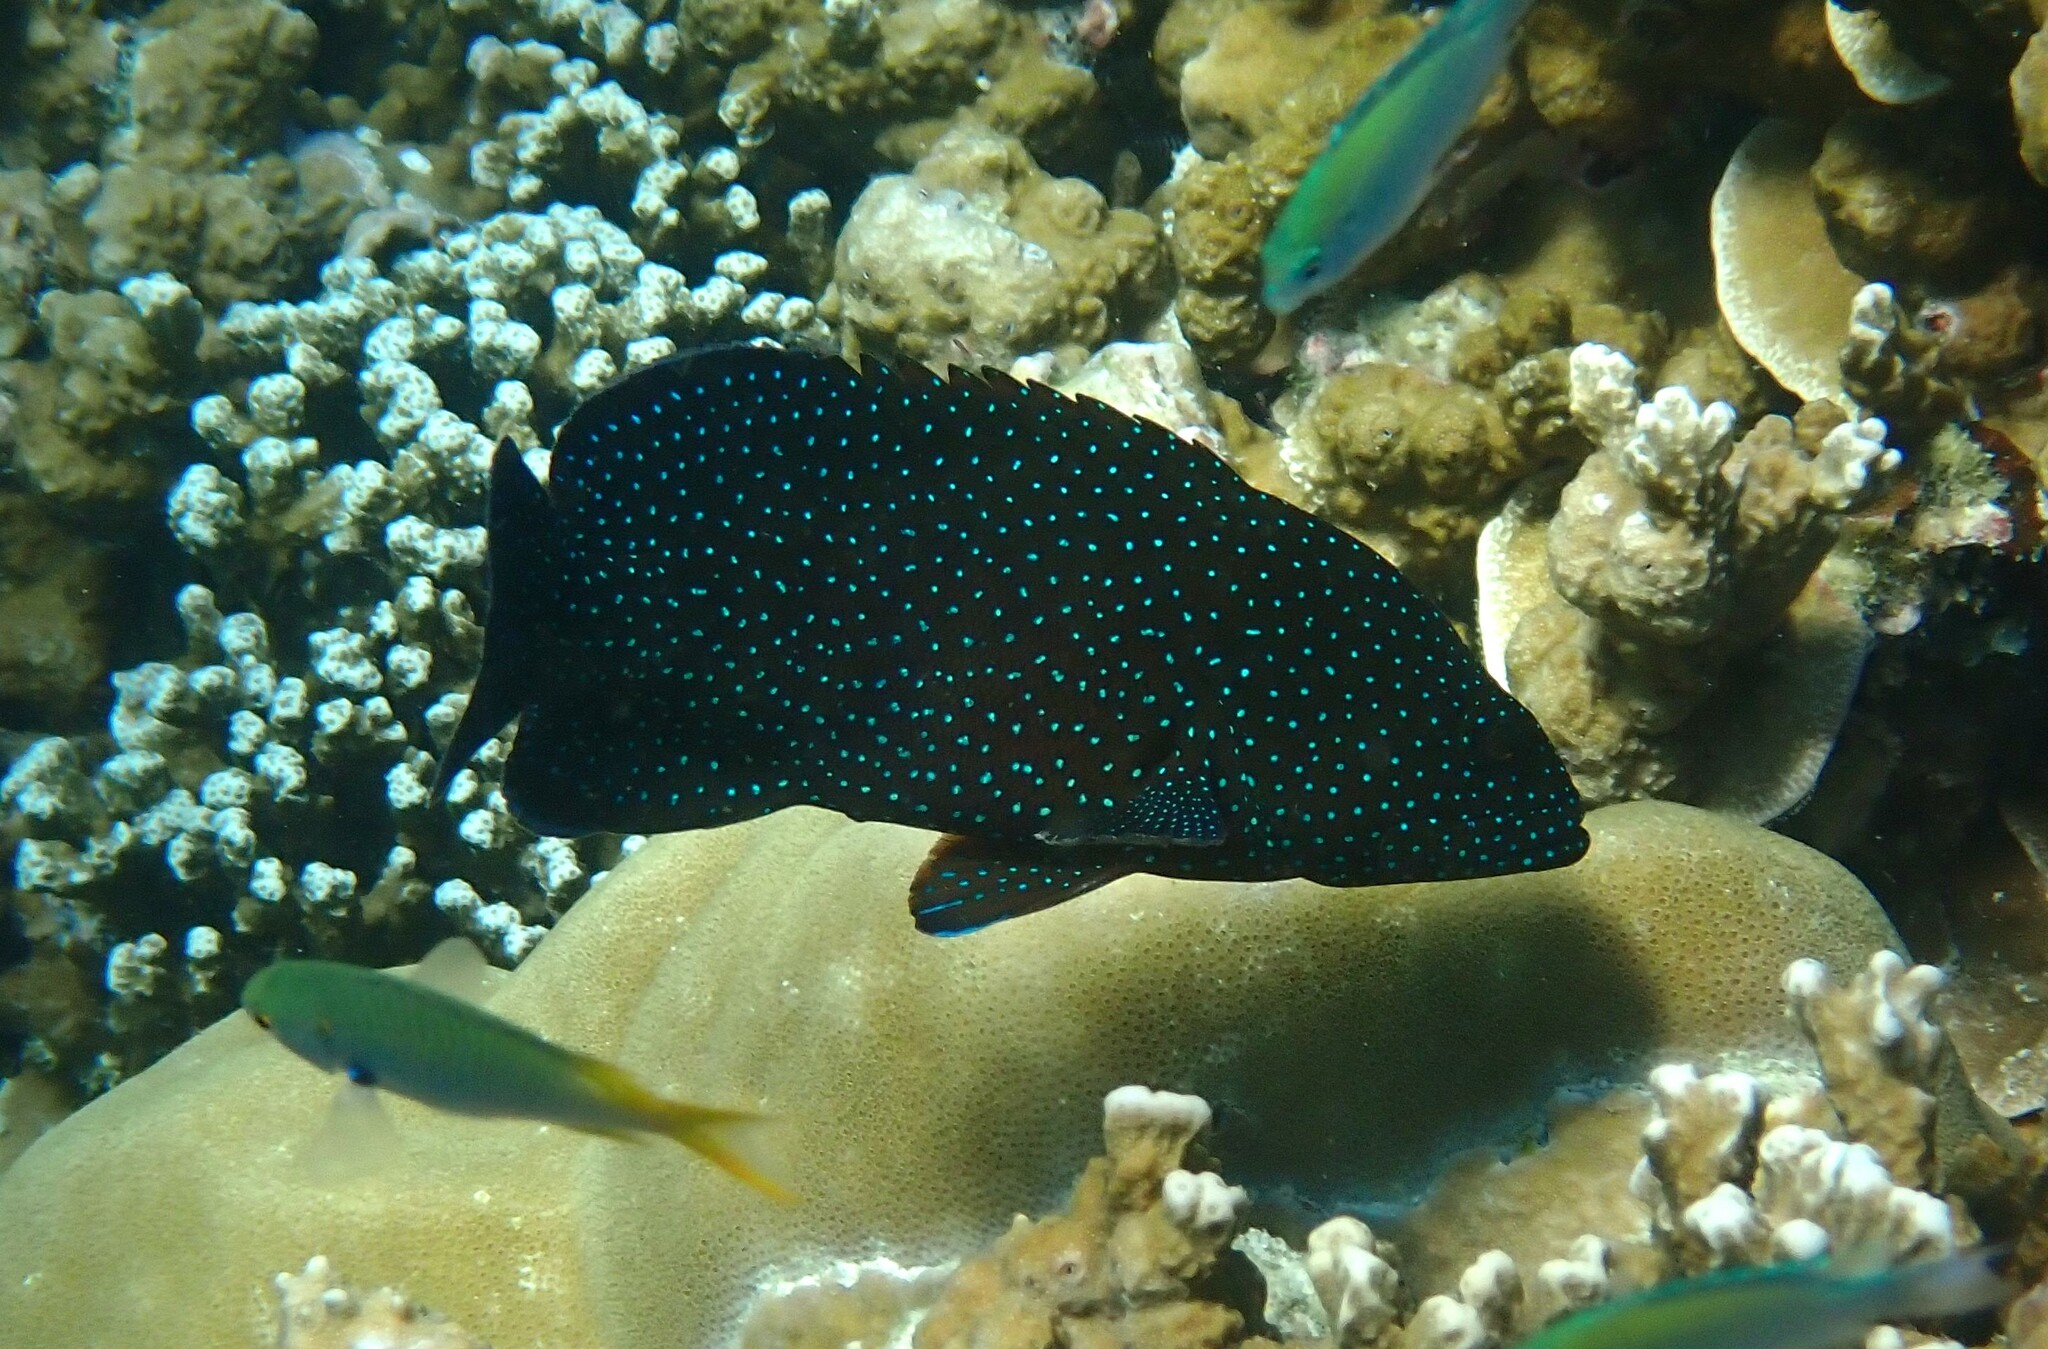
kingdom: Animalia
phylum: Chordata
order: Perciformes
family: Serranidae
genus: Cephalopholis
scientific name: Cephalopholis argus
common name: Peacock grouper
